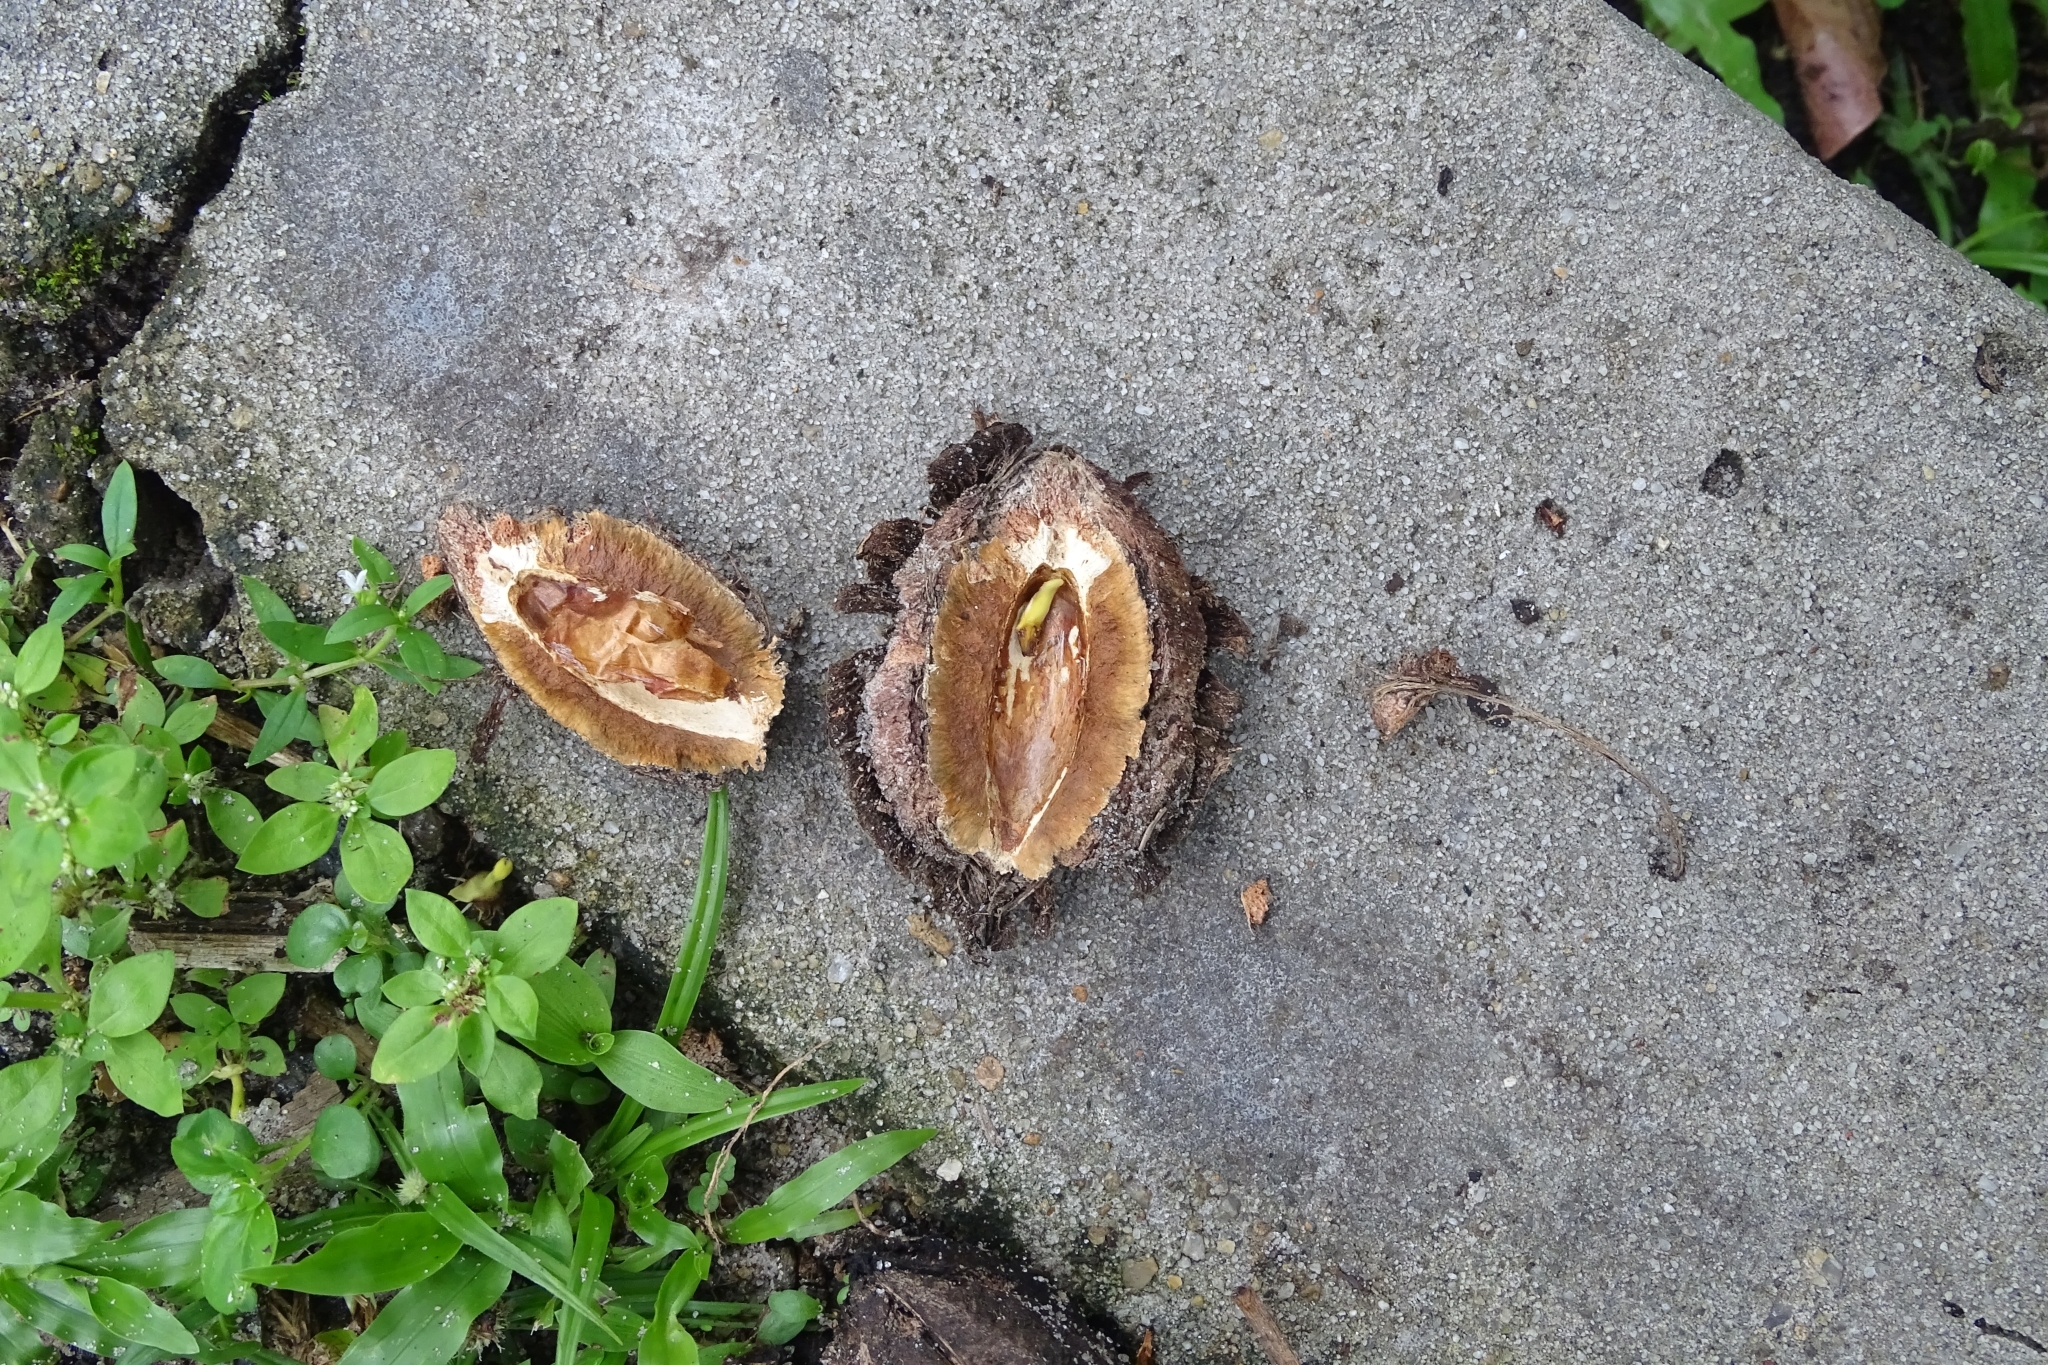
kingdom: Plantae
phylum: Tracheophyta
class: Magnoliopsida
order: Myrtales
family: Combretaceae
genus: Terminalia
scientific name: Terminalia catappa
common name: Tropical almond
